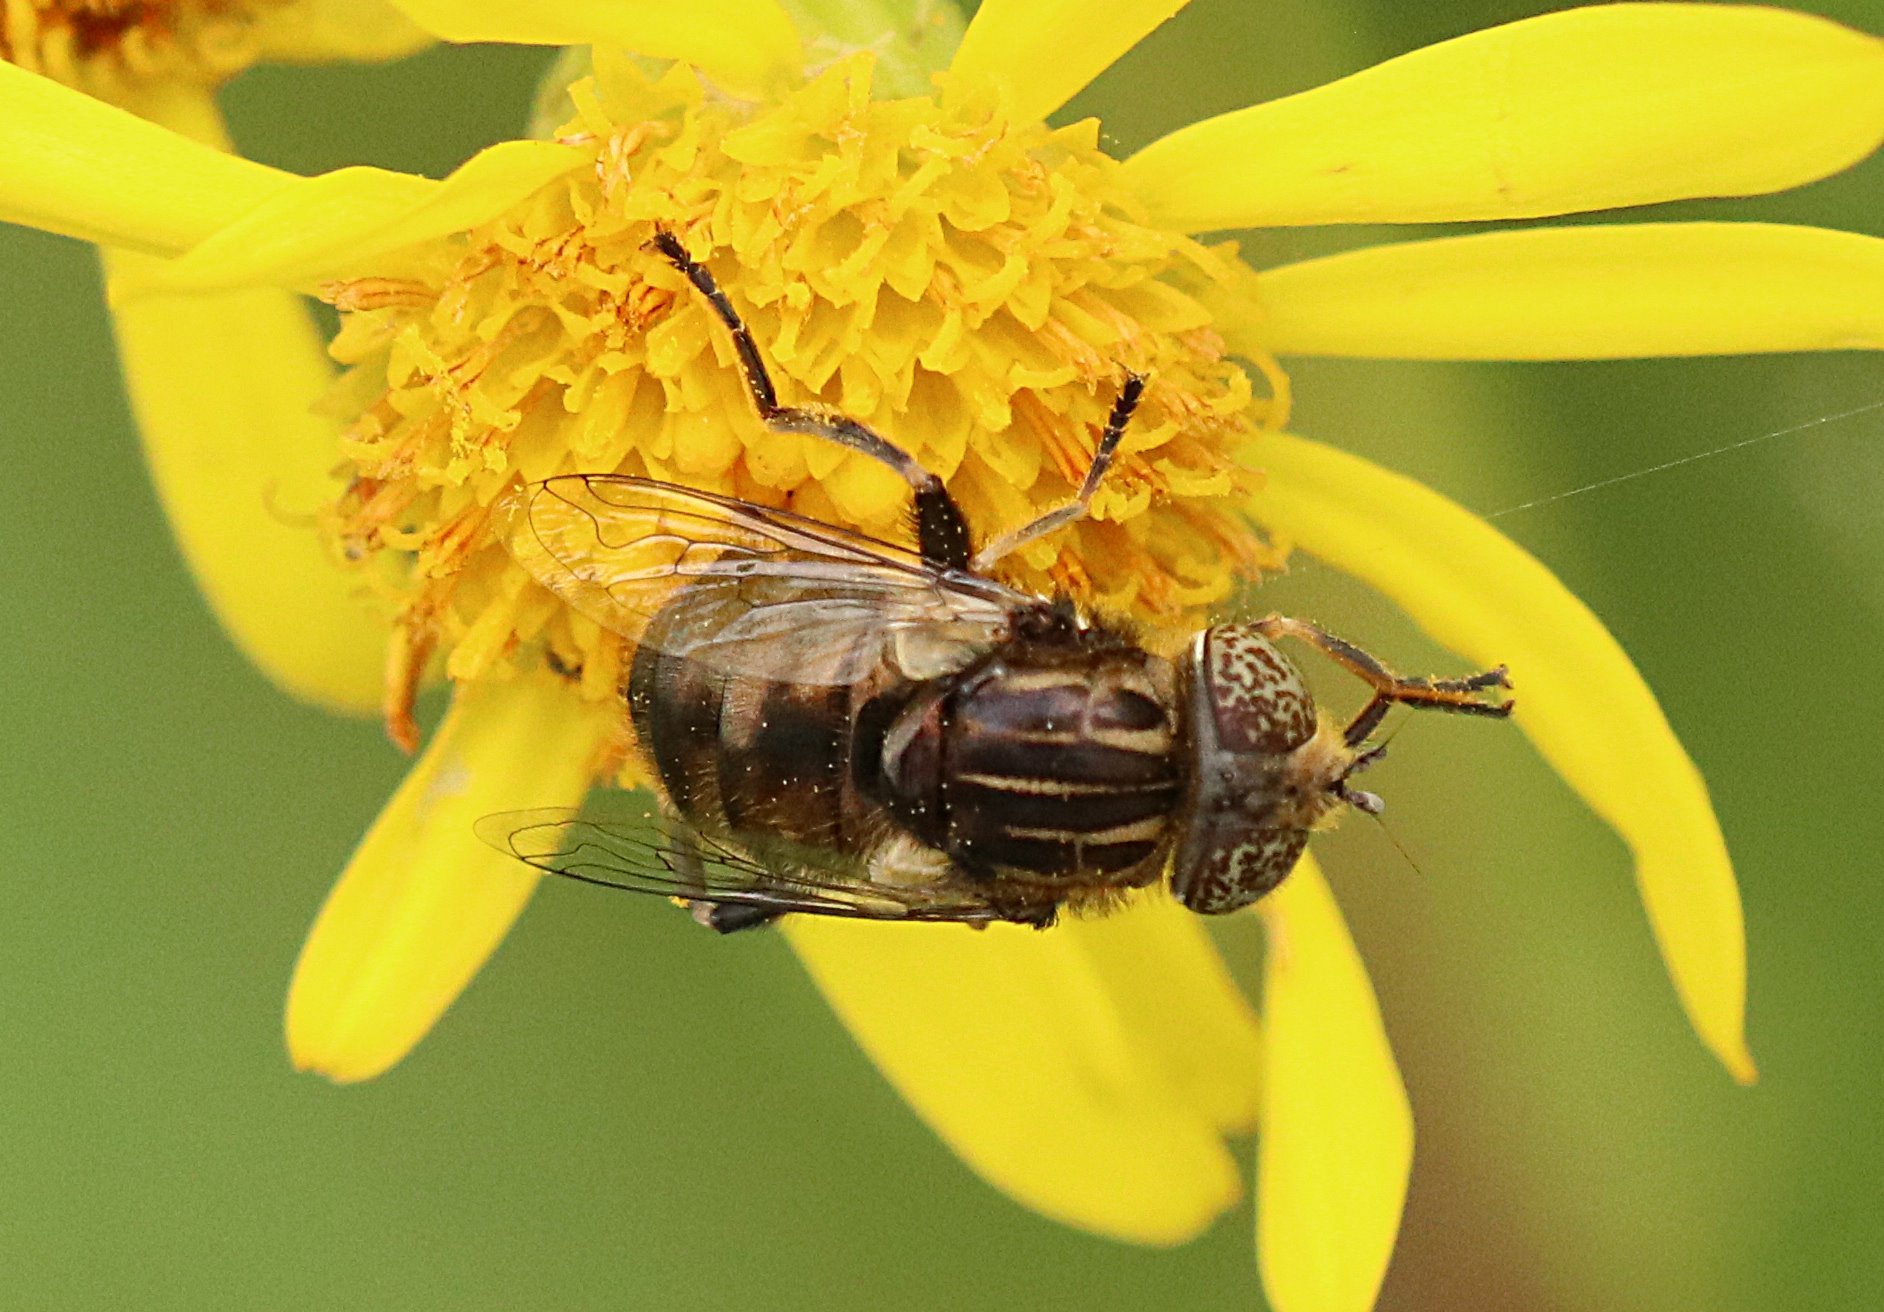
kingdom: Animalia
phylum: Arthropoda
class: Insecta
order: Diptera
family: Syrphidae
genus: Eristalinus
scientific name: Eristalinus sepulchralis
